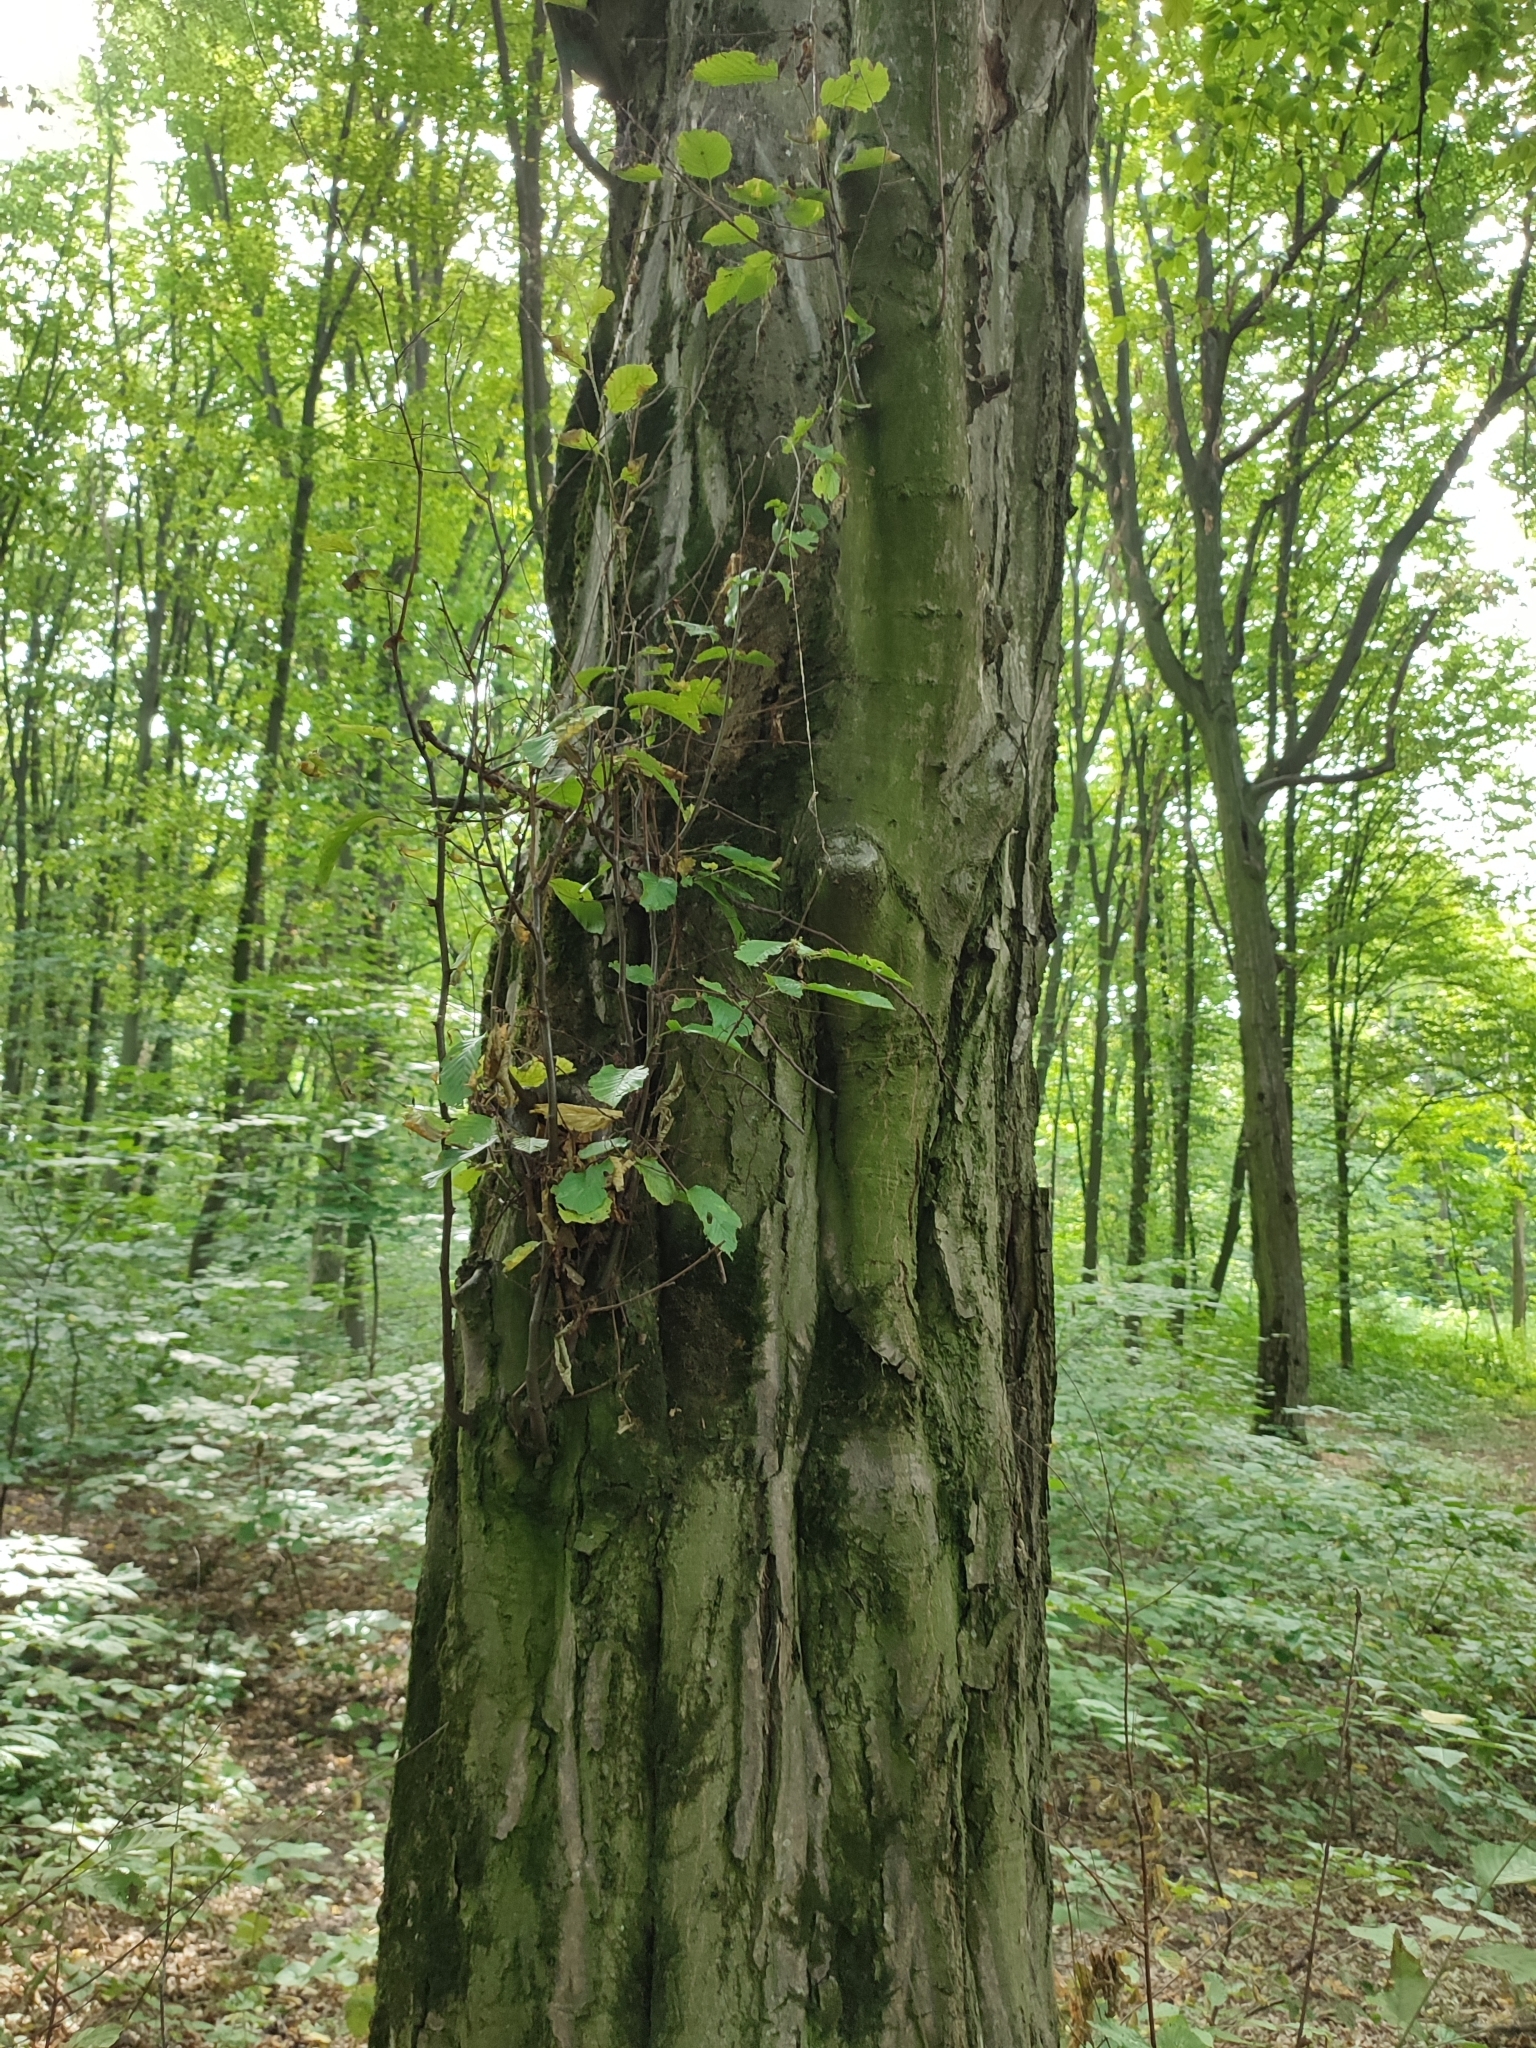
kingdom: Plantae
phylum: Tracheophyta
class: Magnoliopsida
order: Fagales
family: Betulaceae
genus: Carpinus
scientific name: Carpinus betulus
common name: Hornbeam
